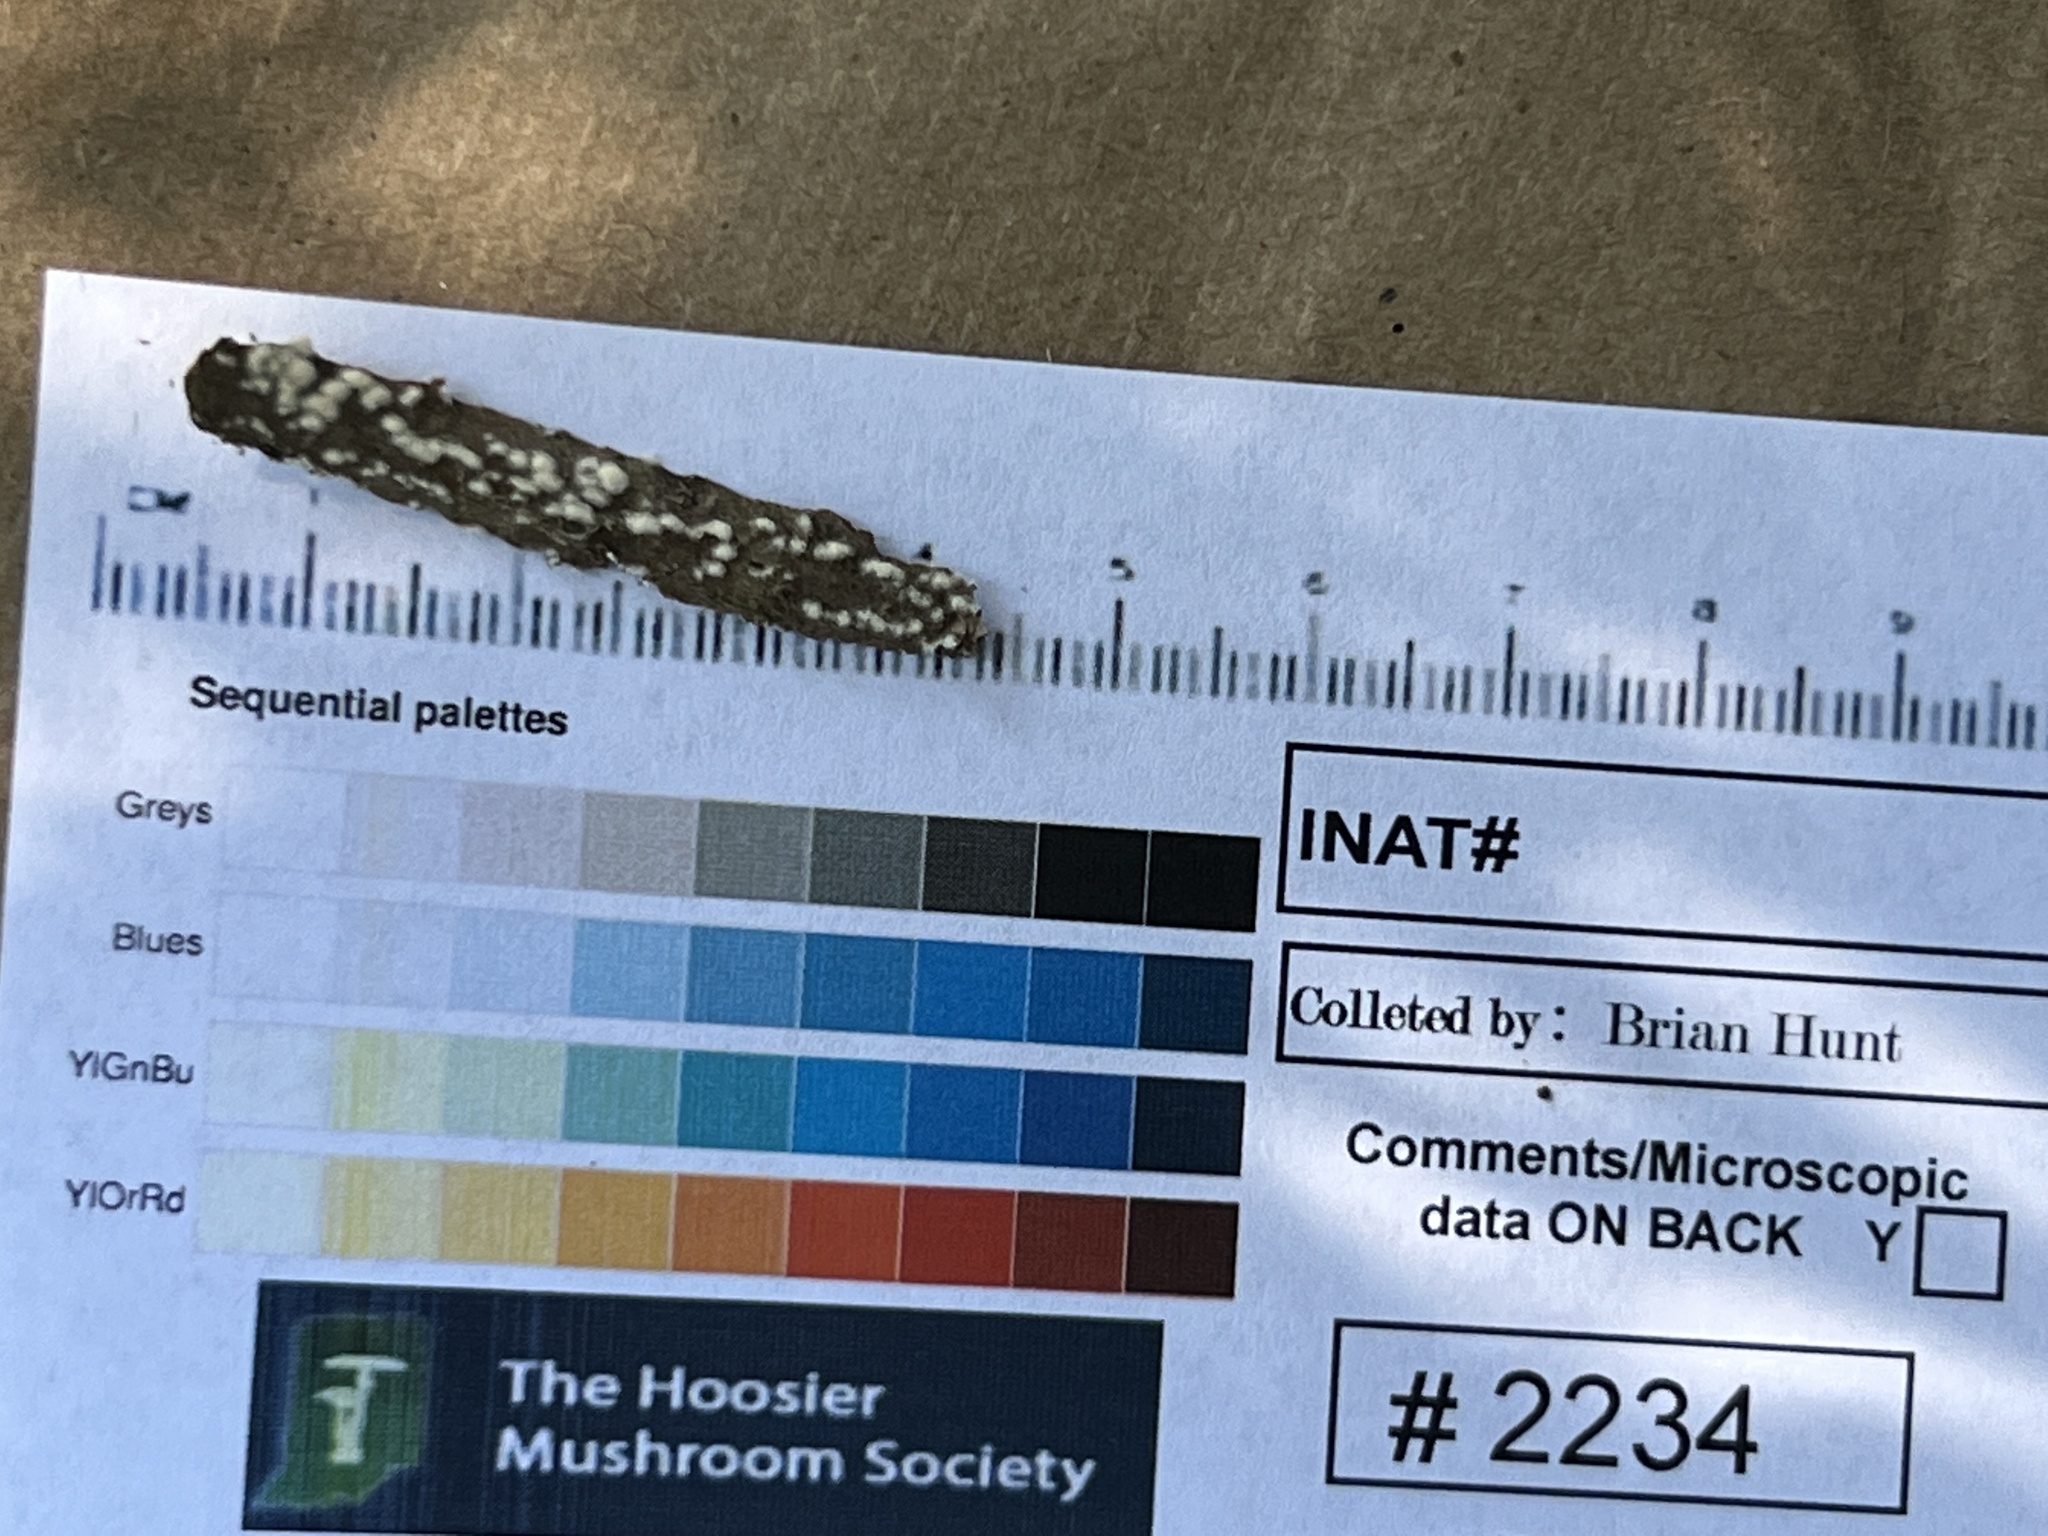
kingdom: Fungi
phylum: Ascomycota
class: Sordariomycetes
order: Hypocreales
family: Myrotheciomycetaceae
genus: Trichothecium
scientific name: Trichothecium roseum
